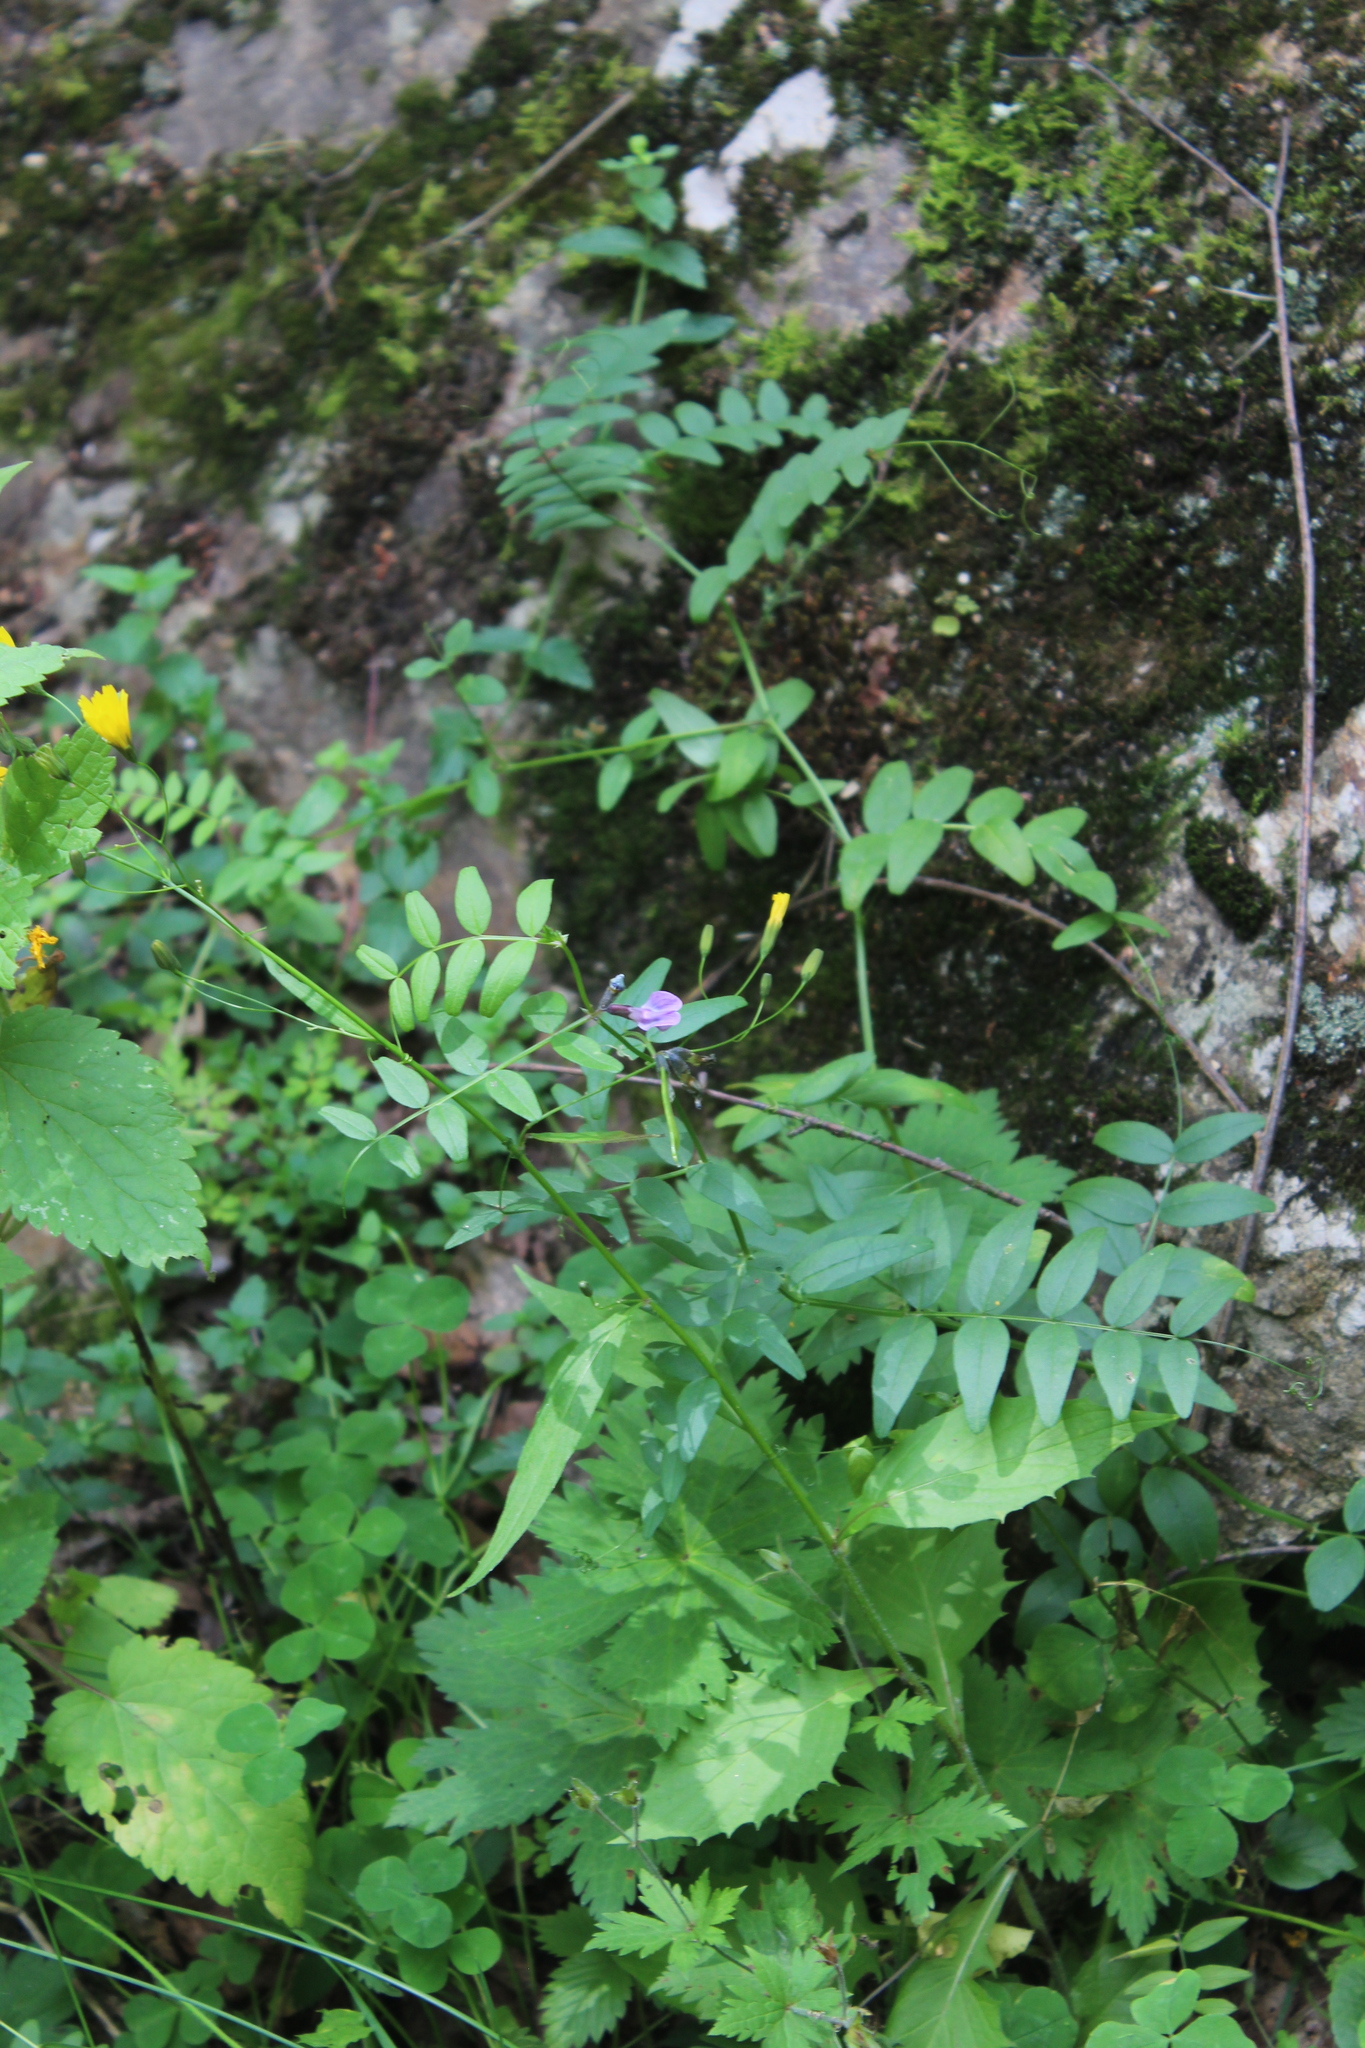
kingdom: Plantae
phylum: Tracheophyta
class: Magnoliopsida
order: Fabales
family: Fabaceae
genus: Vicia
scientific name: Vicia sepium
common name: Bush vetch
